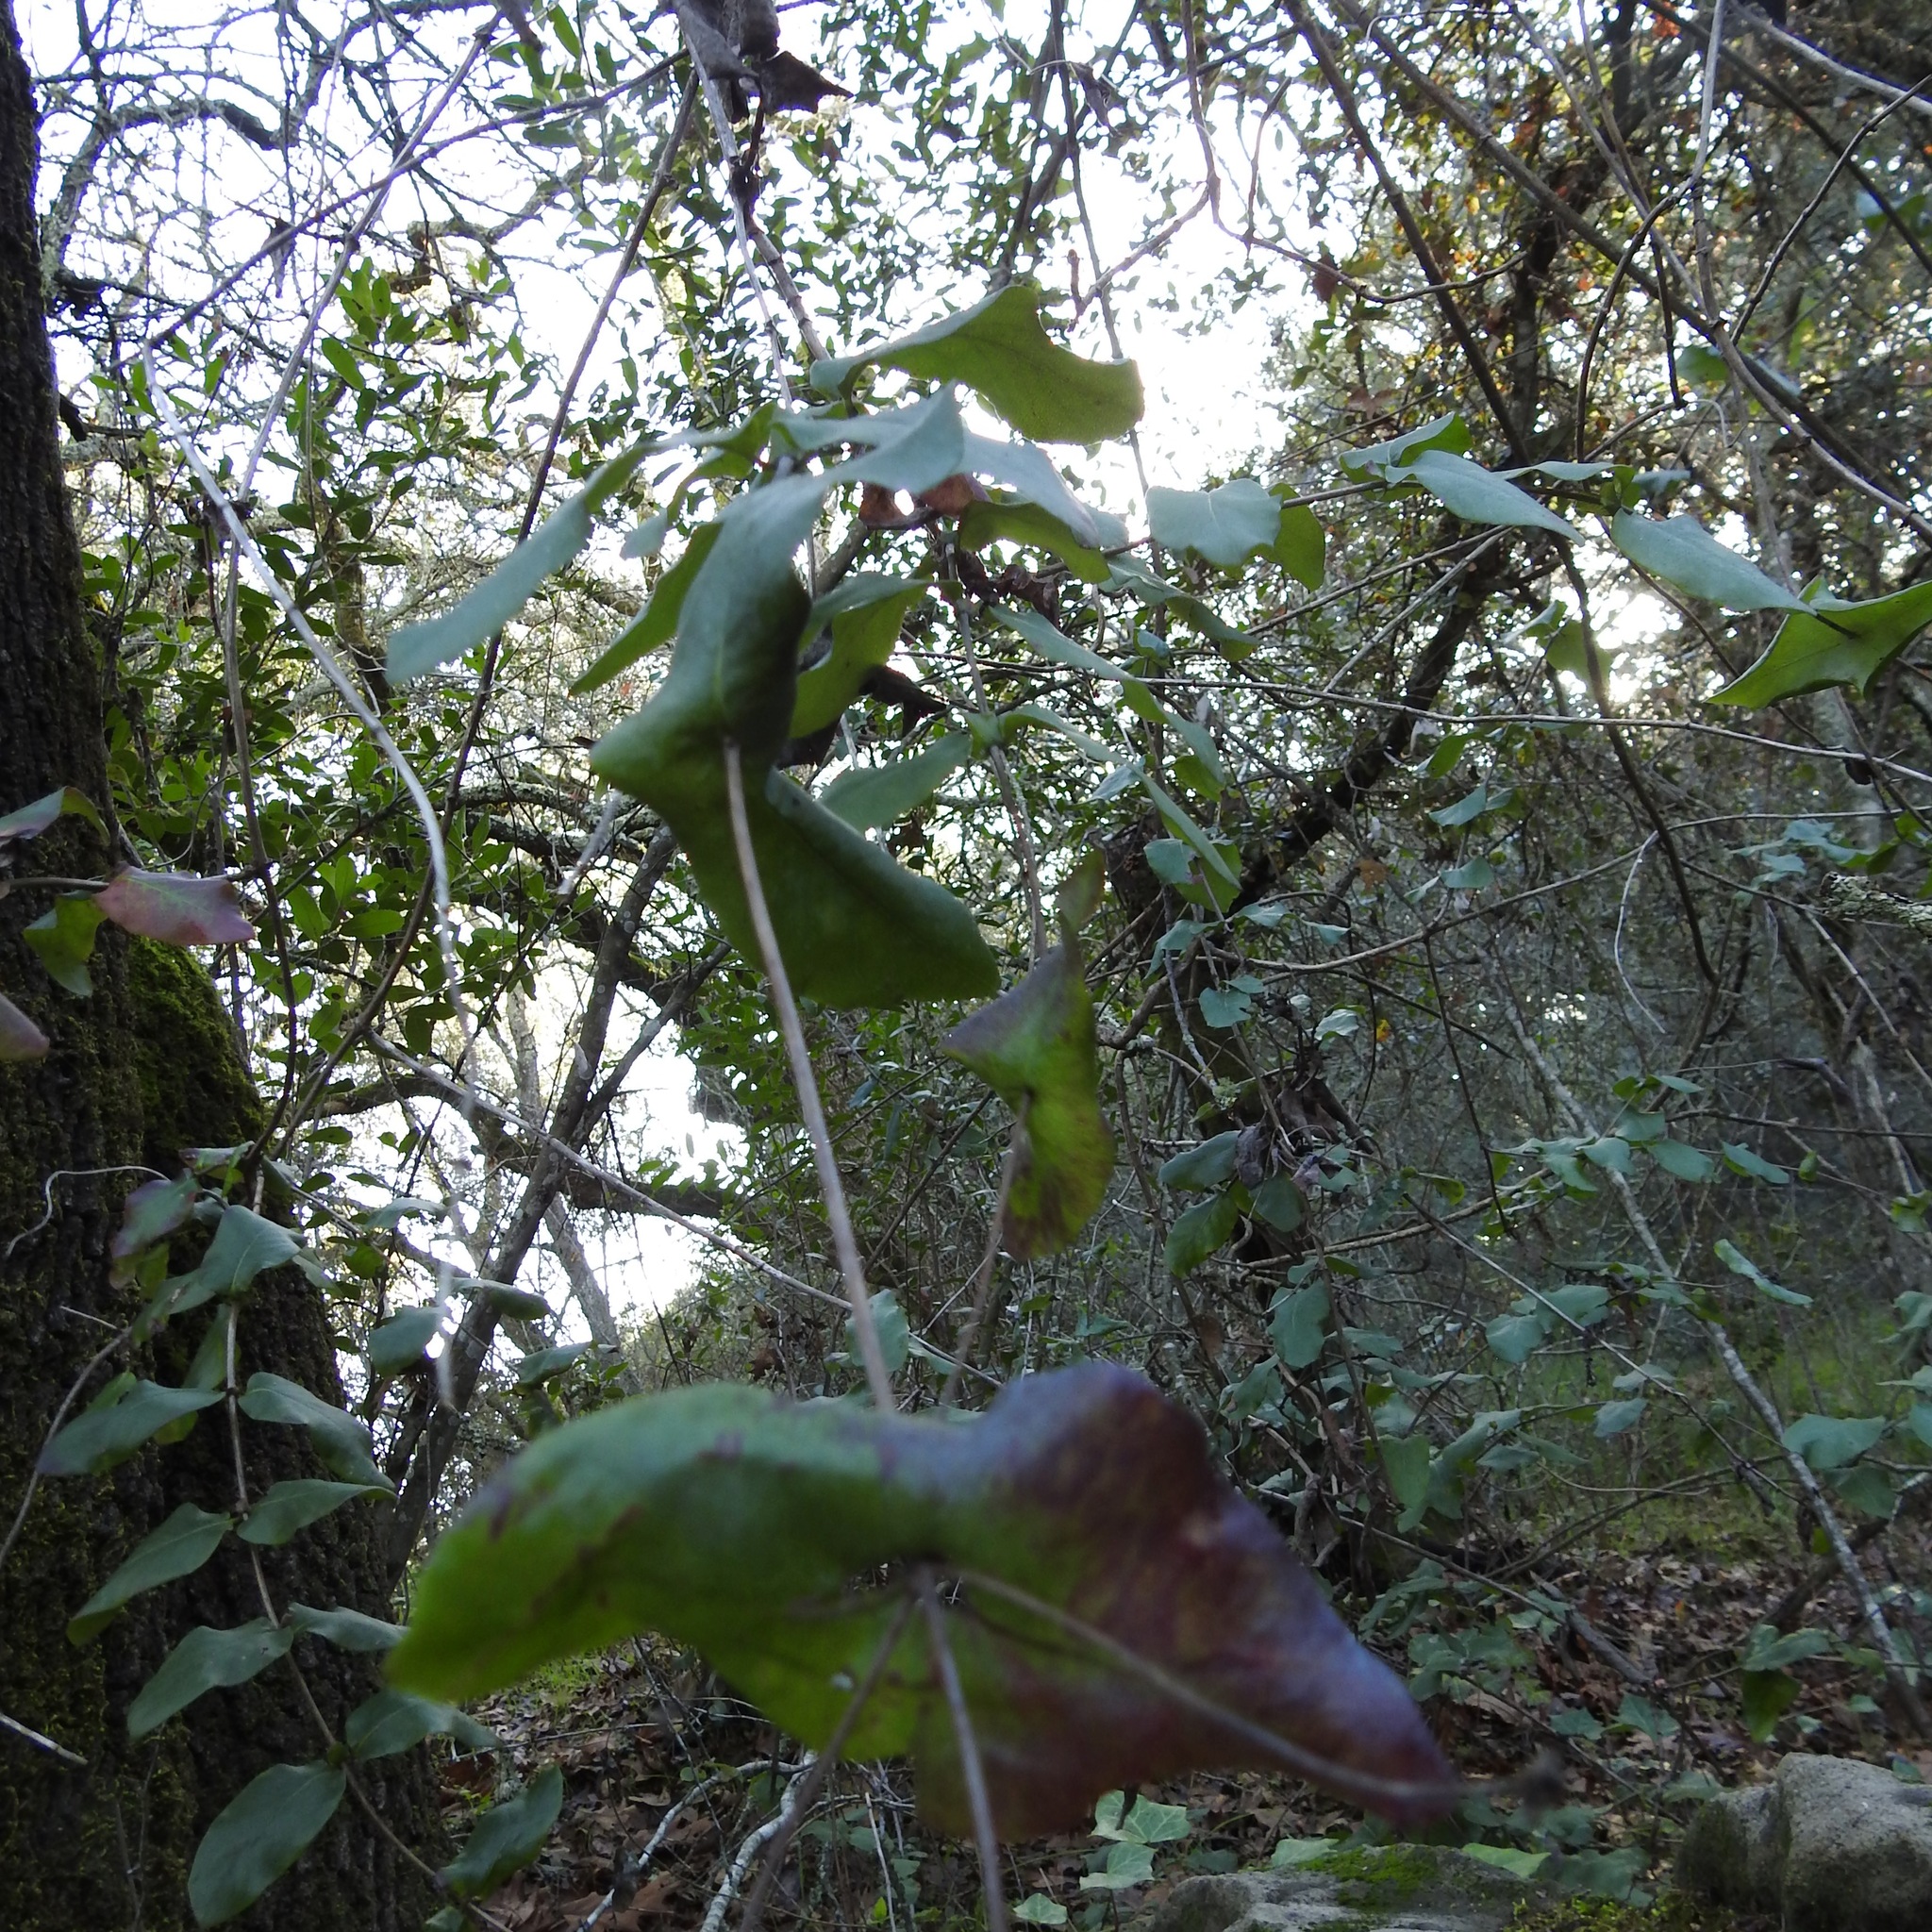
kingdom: Plantae
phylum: Tracheophyta
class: Magnoliopsida
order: Dipsacales
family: Caprifoliaceae
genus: Lonicera
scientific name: Lonicera hispidula
